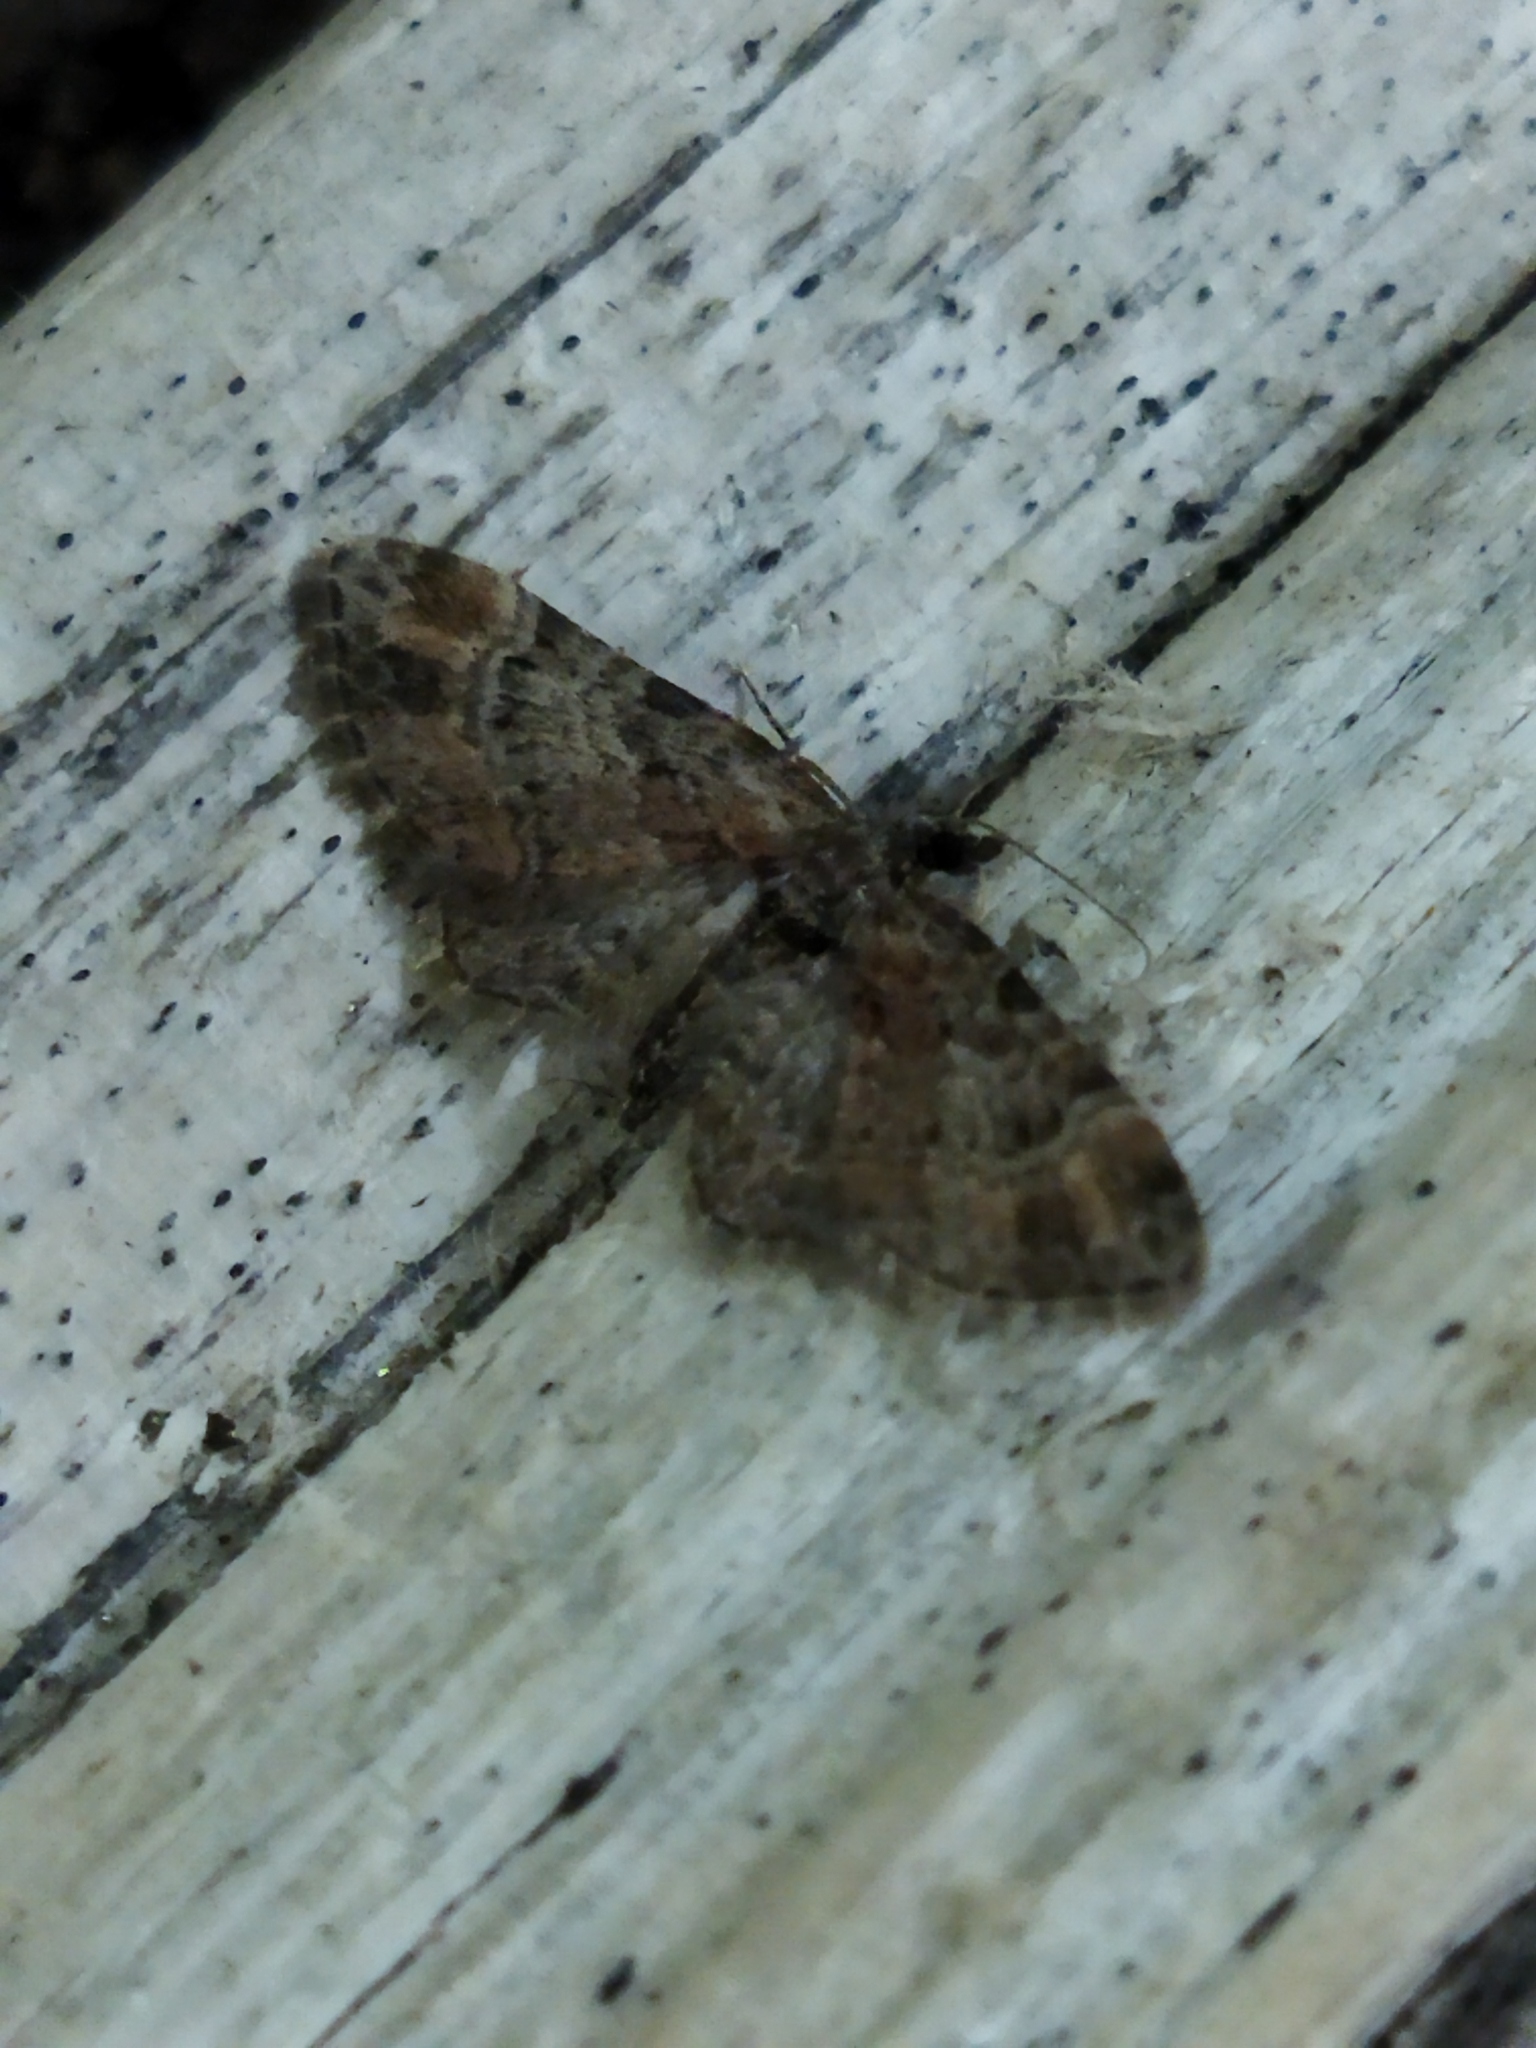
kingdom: Animalia
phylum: Arthropoda
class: Insecta
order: Lepidoptera
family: Geometridae
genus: Gymnoscelis
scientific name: Gymnoscelis rufifasciata
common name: Double-striped pug
